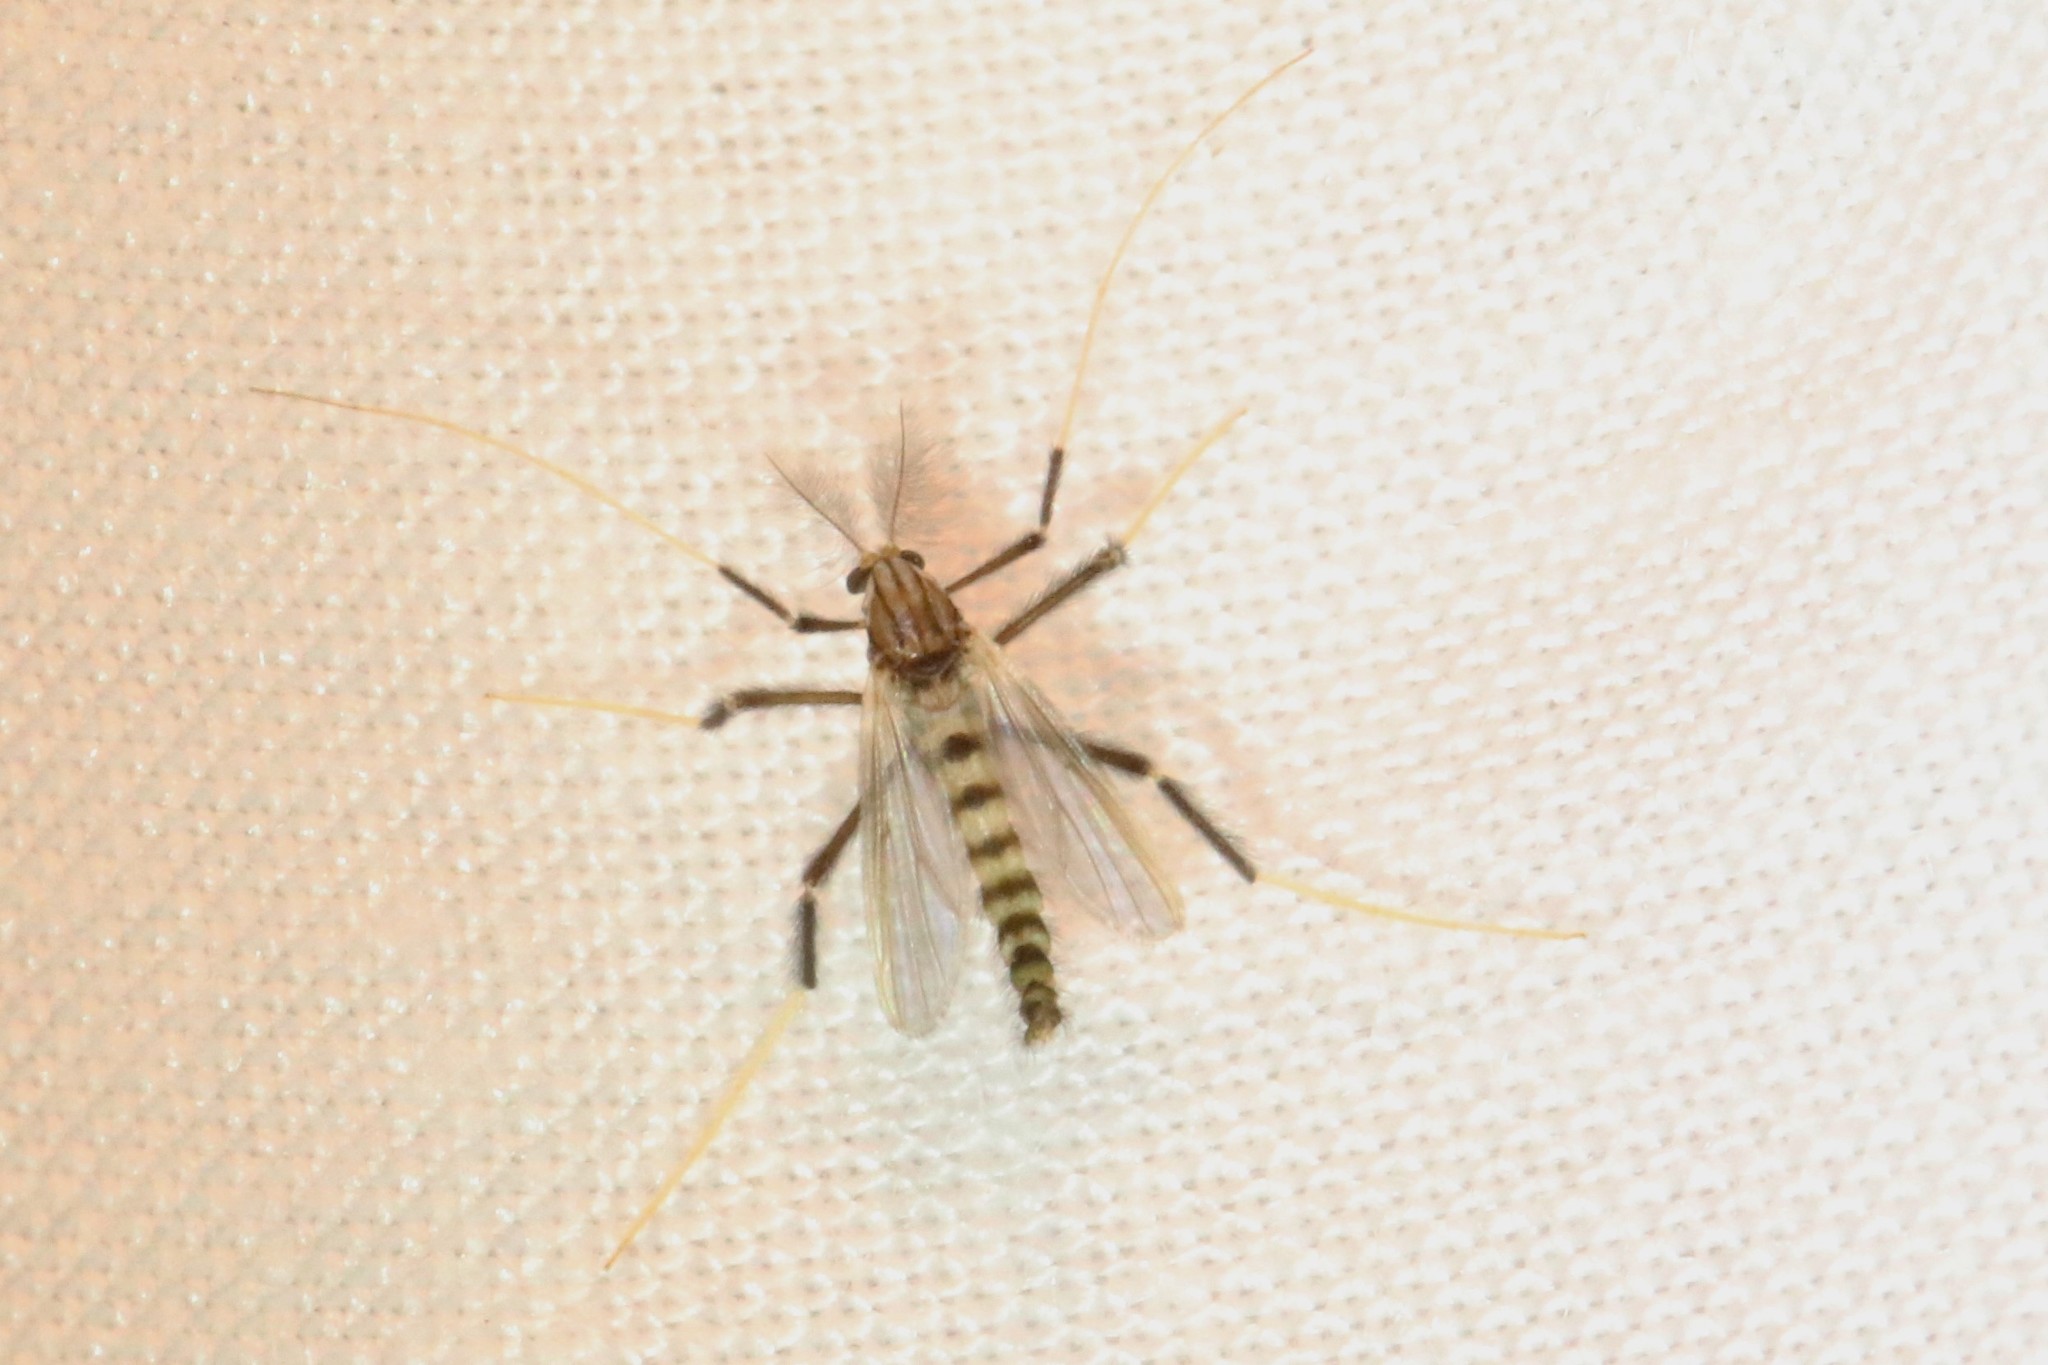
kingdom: Animalia
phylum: Arthropoda
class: Insecta
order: Diptera
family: Chironomidae
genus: Polypedilum
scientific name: Polypedilum ontario
